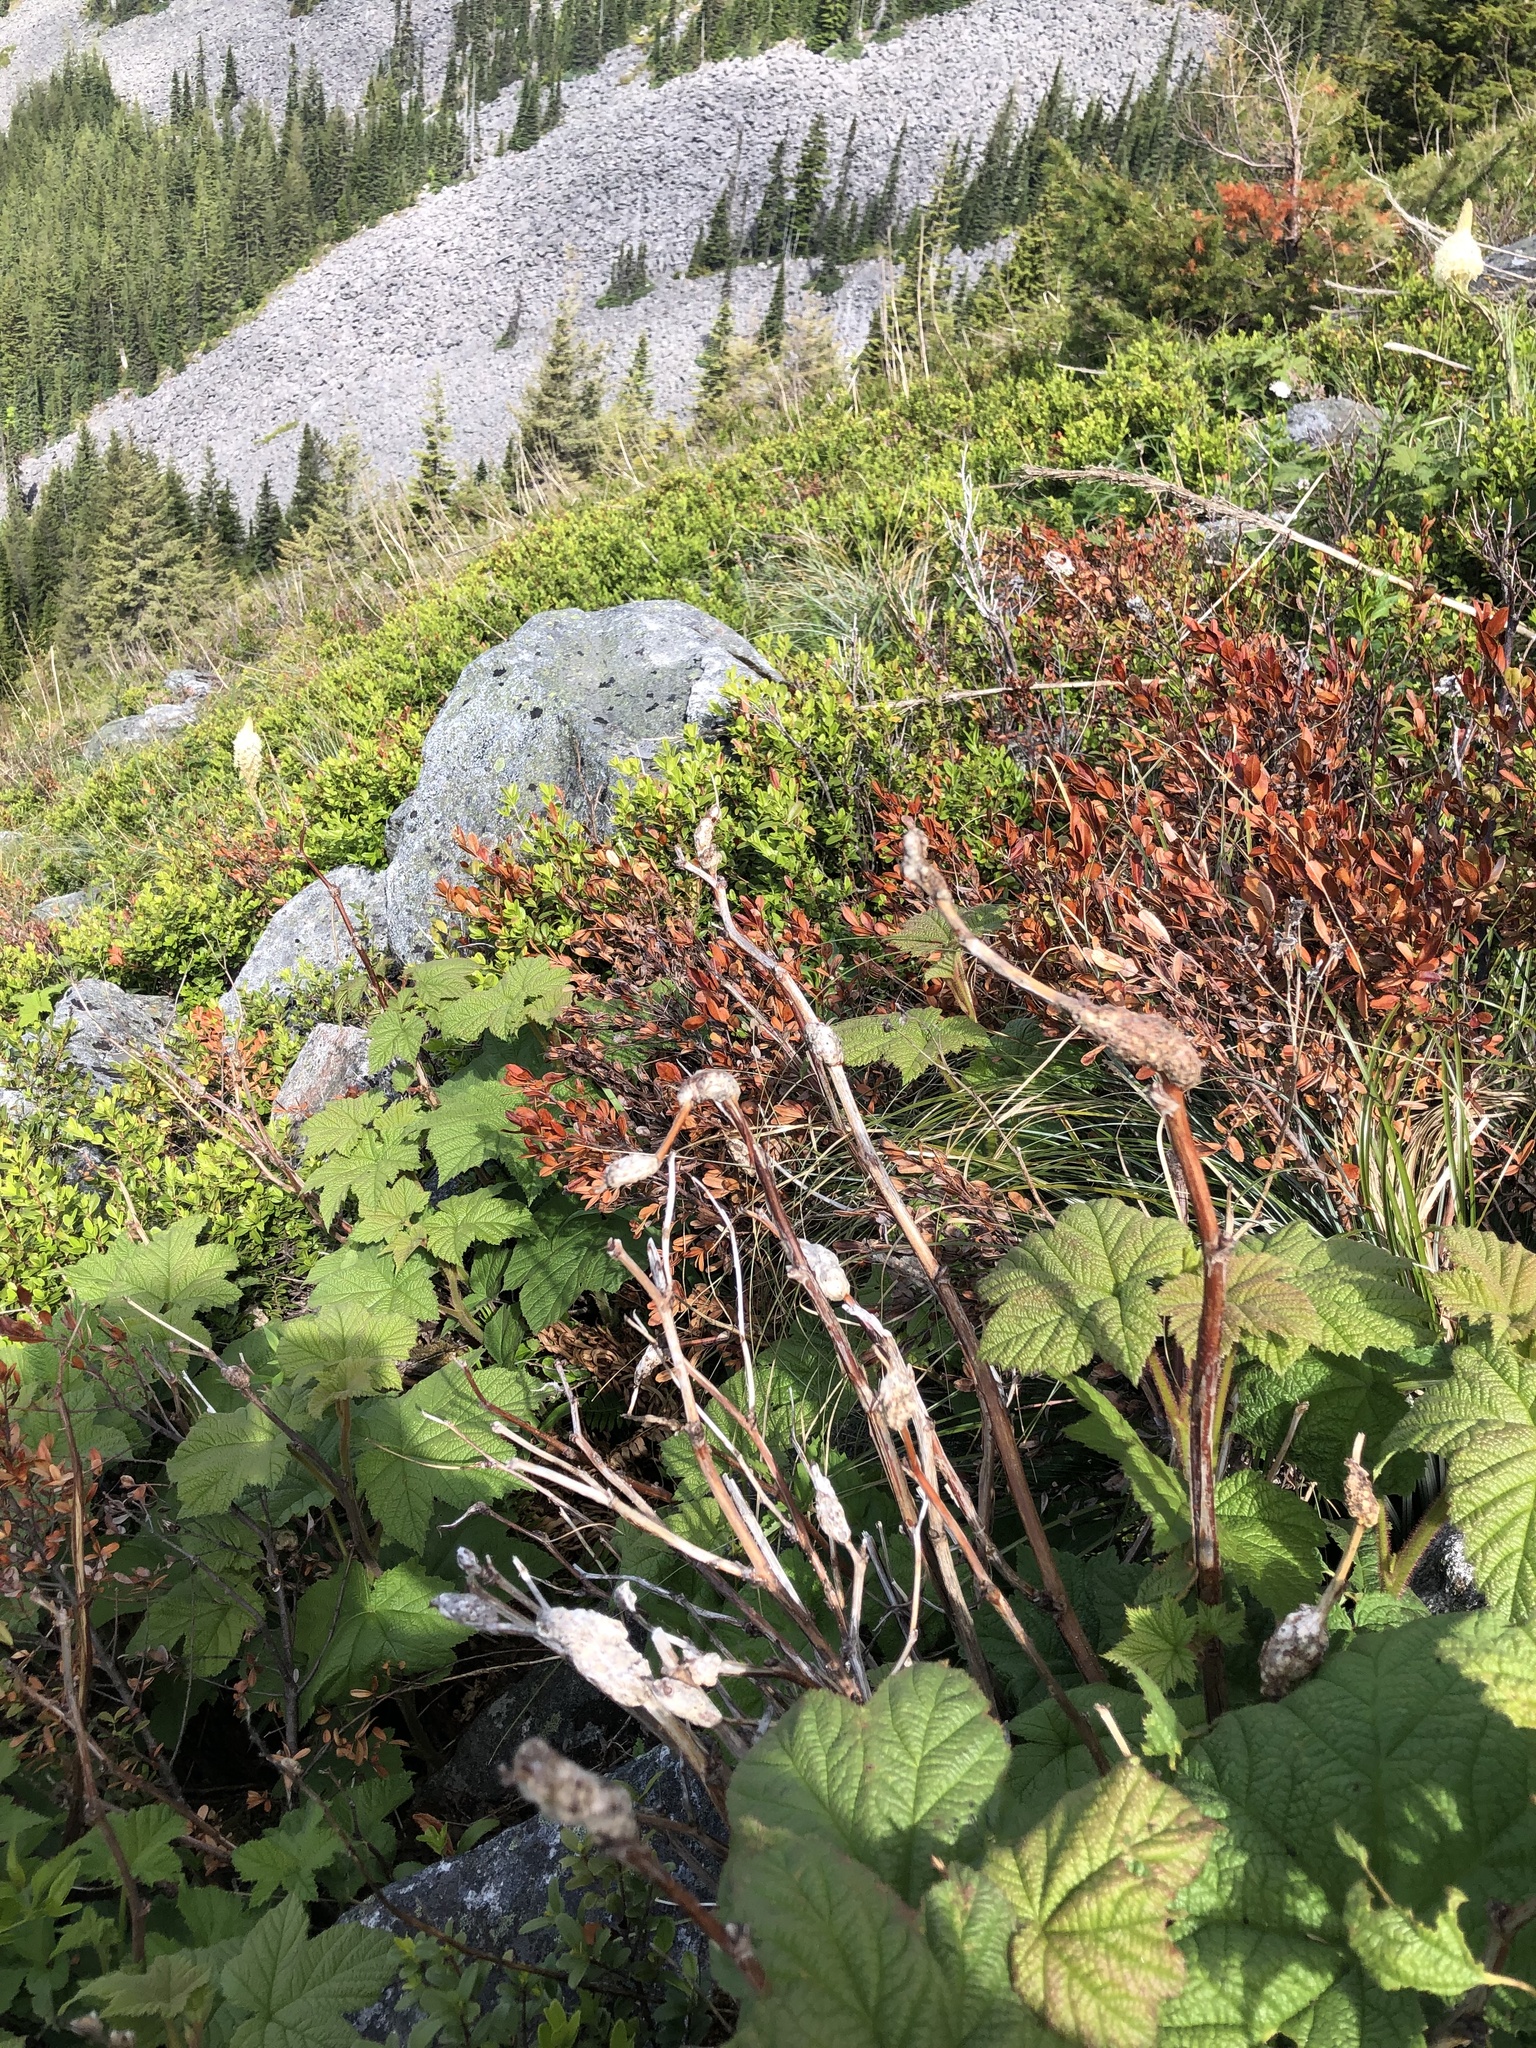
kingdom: Animalia
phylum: Arthropoda
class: Insecta
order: Hymenoptera
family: Cynipidae
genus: Diastrophus
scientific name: Diastrophus
